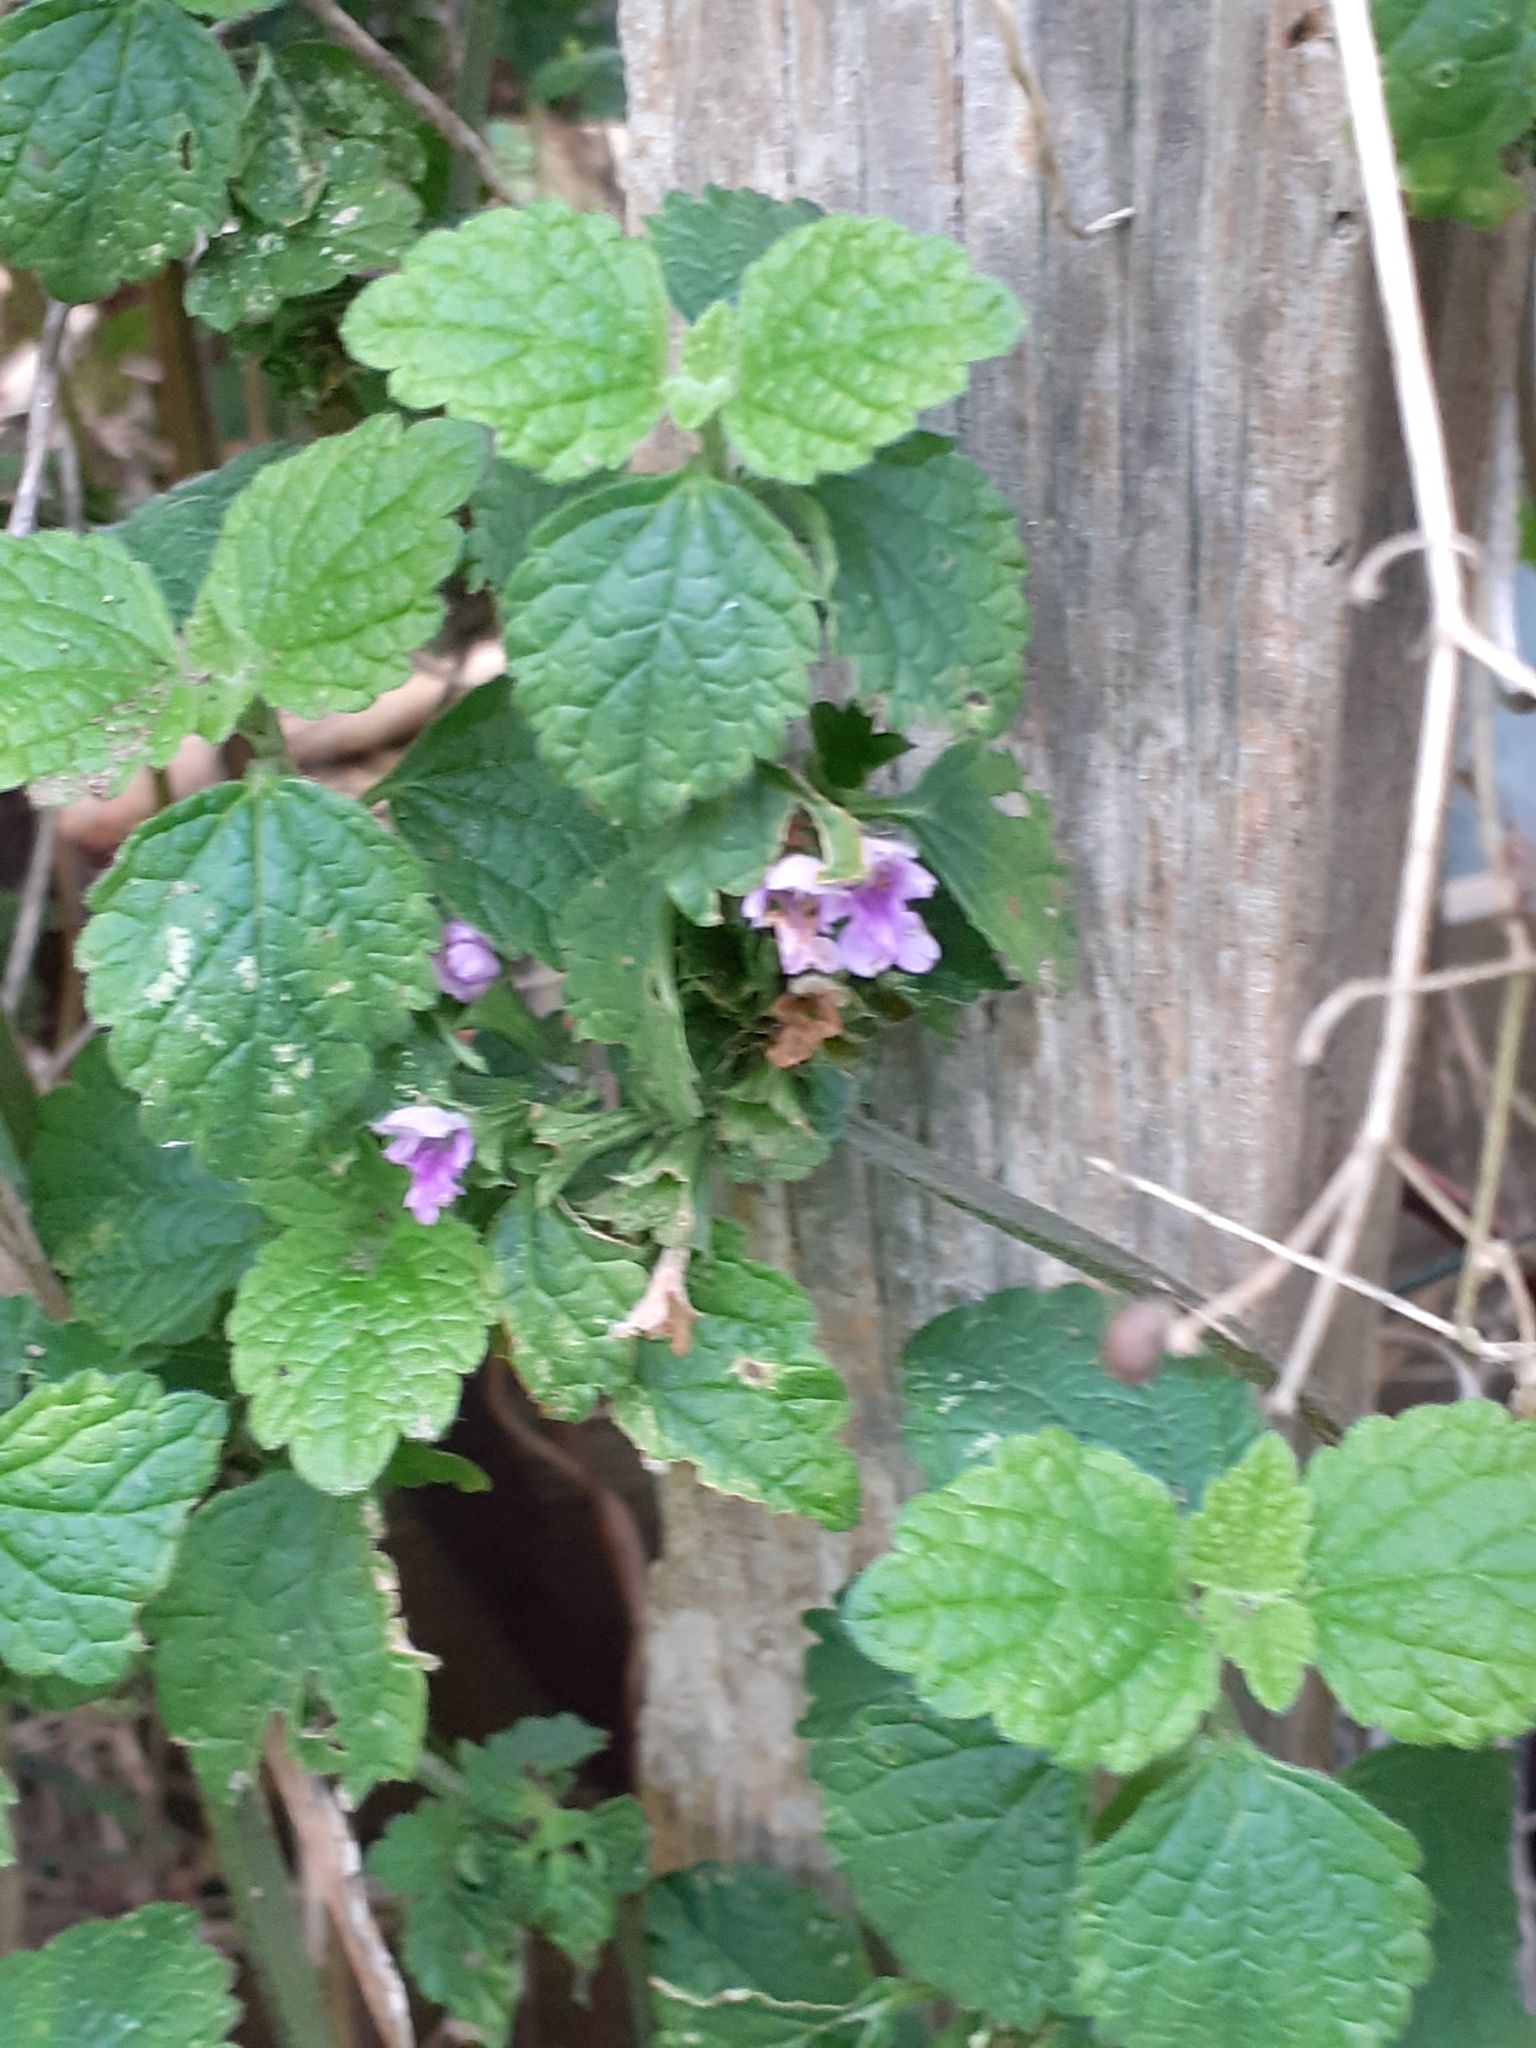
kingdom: Plantae
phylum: Tracheophyta
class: Magnoliopsida
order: Lamiales
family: Lamiaceae
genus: Ballota
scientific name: Ballota nigra
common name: Black horehound
